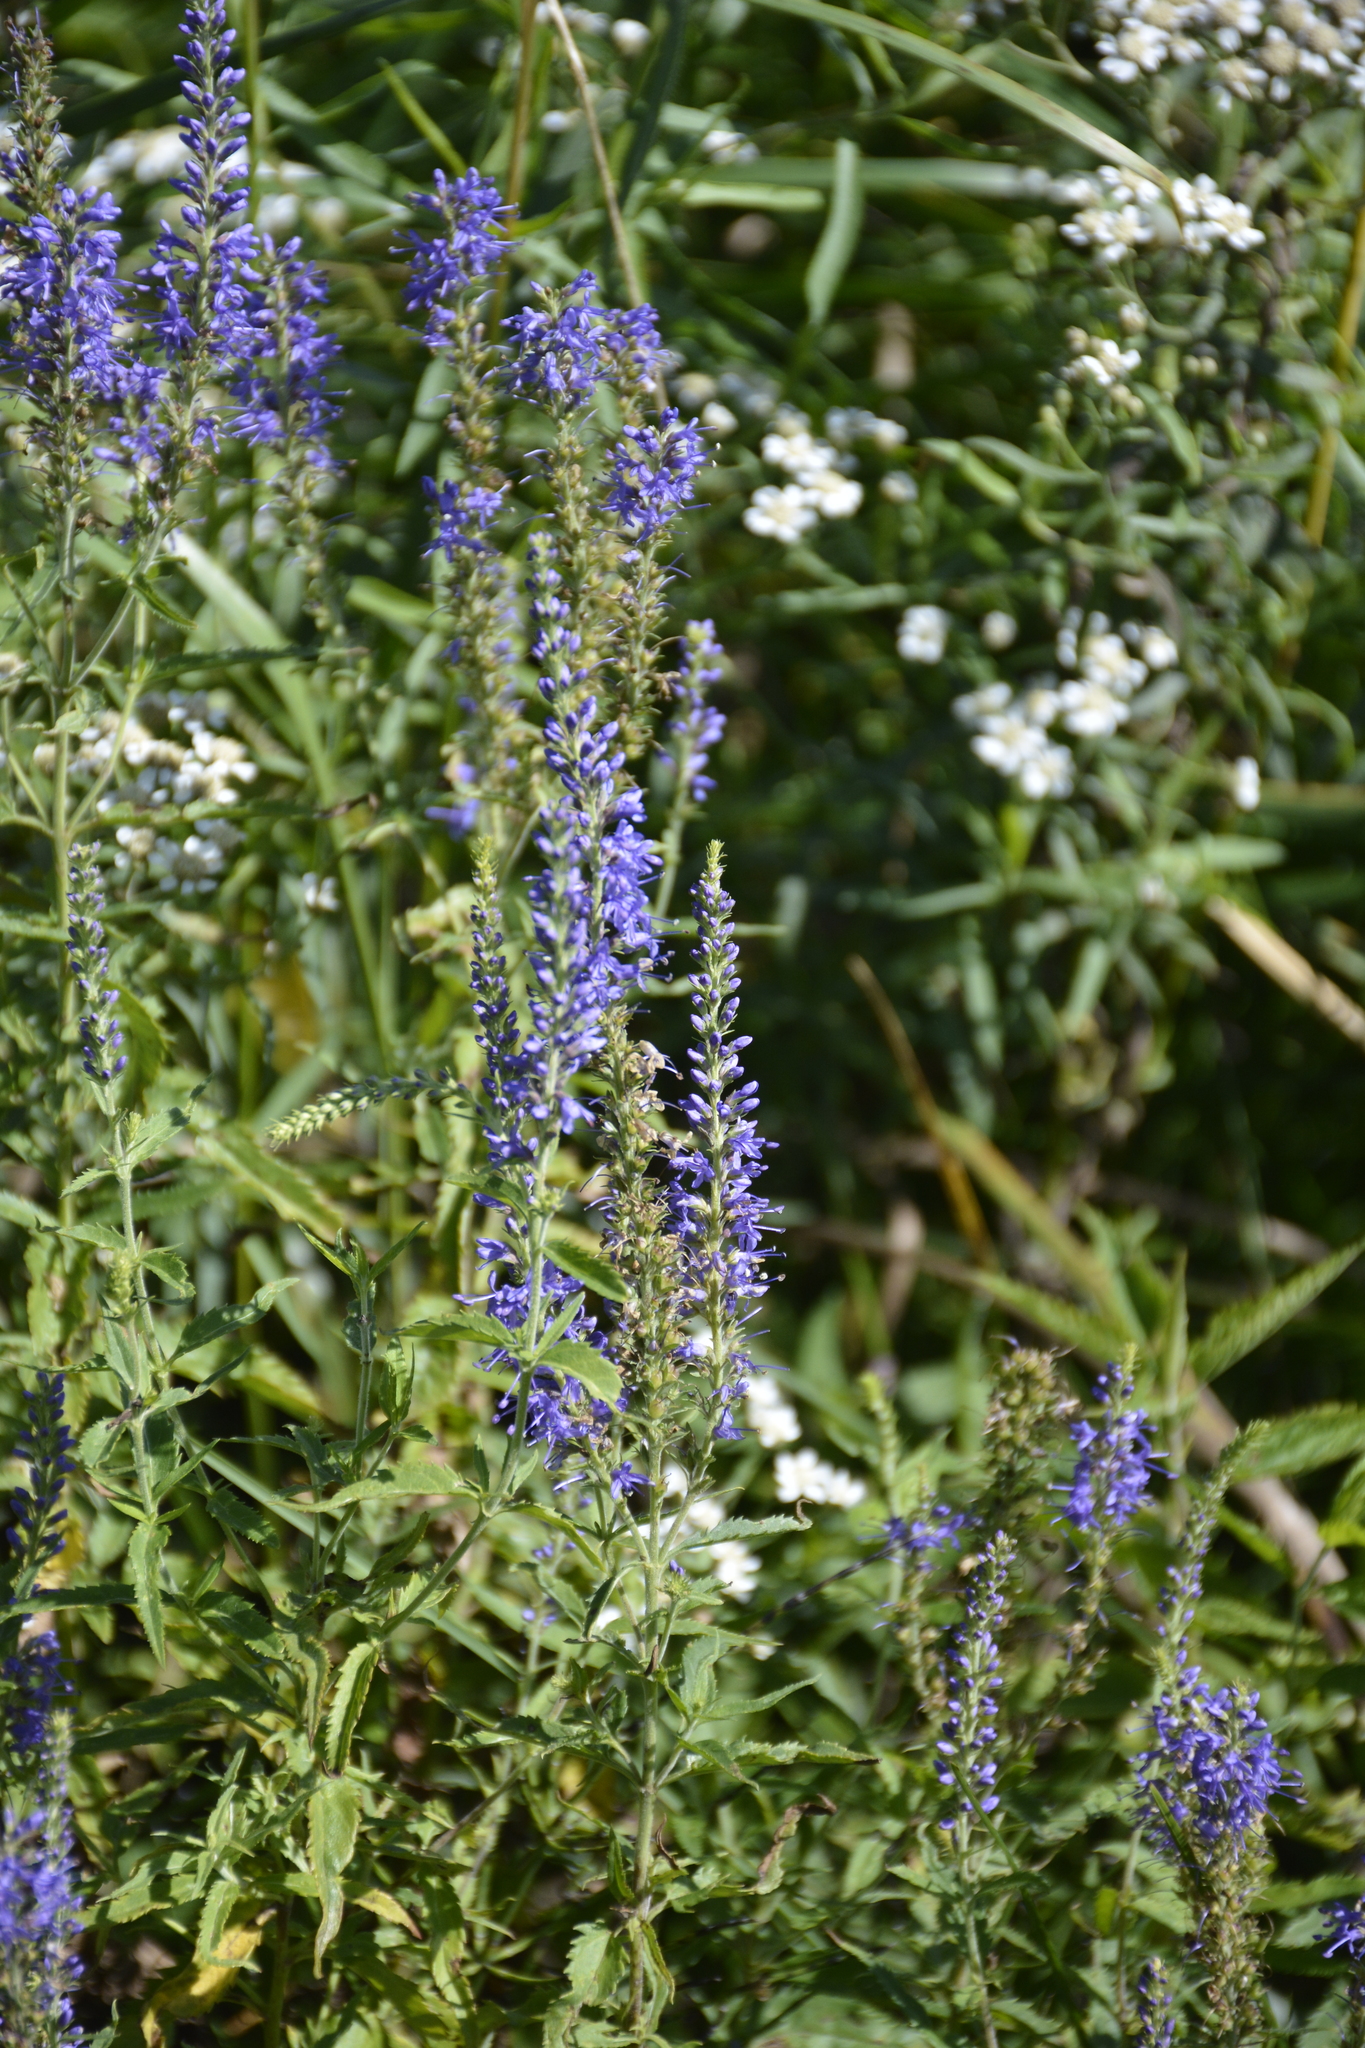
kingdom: Plantae
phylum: Tracheophyta
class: Magnoliopsida
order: Lamiales
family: Plantaginaceae
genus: Veronica
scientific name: Veronica longifolia
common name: Garden speedwell
